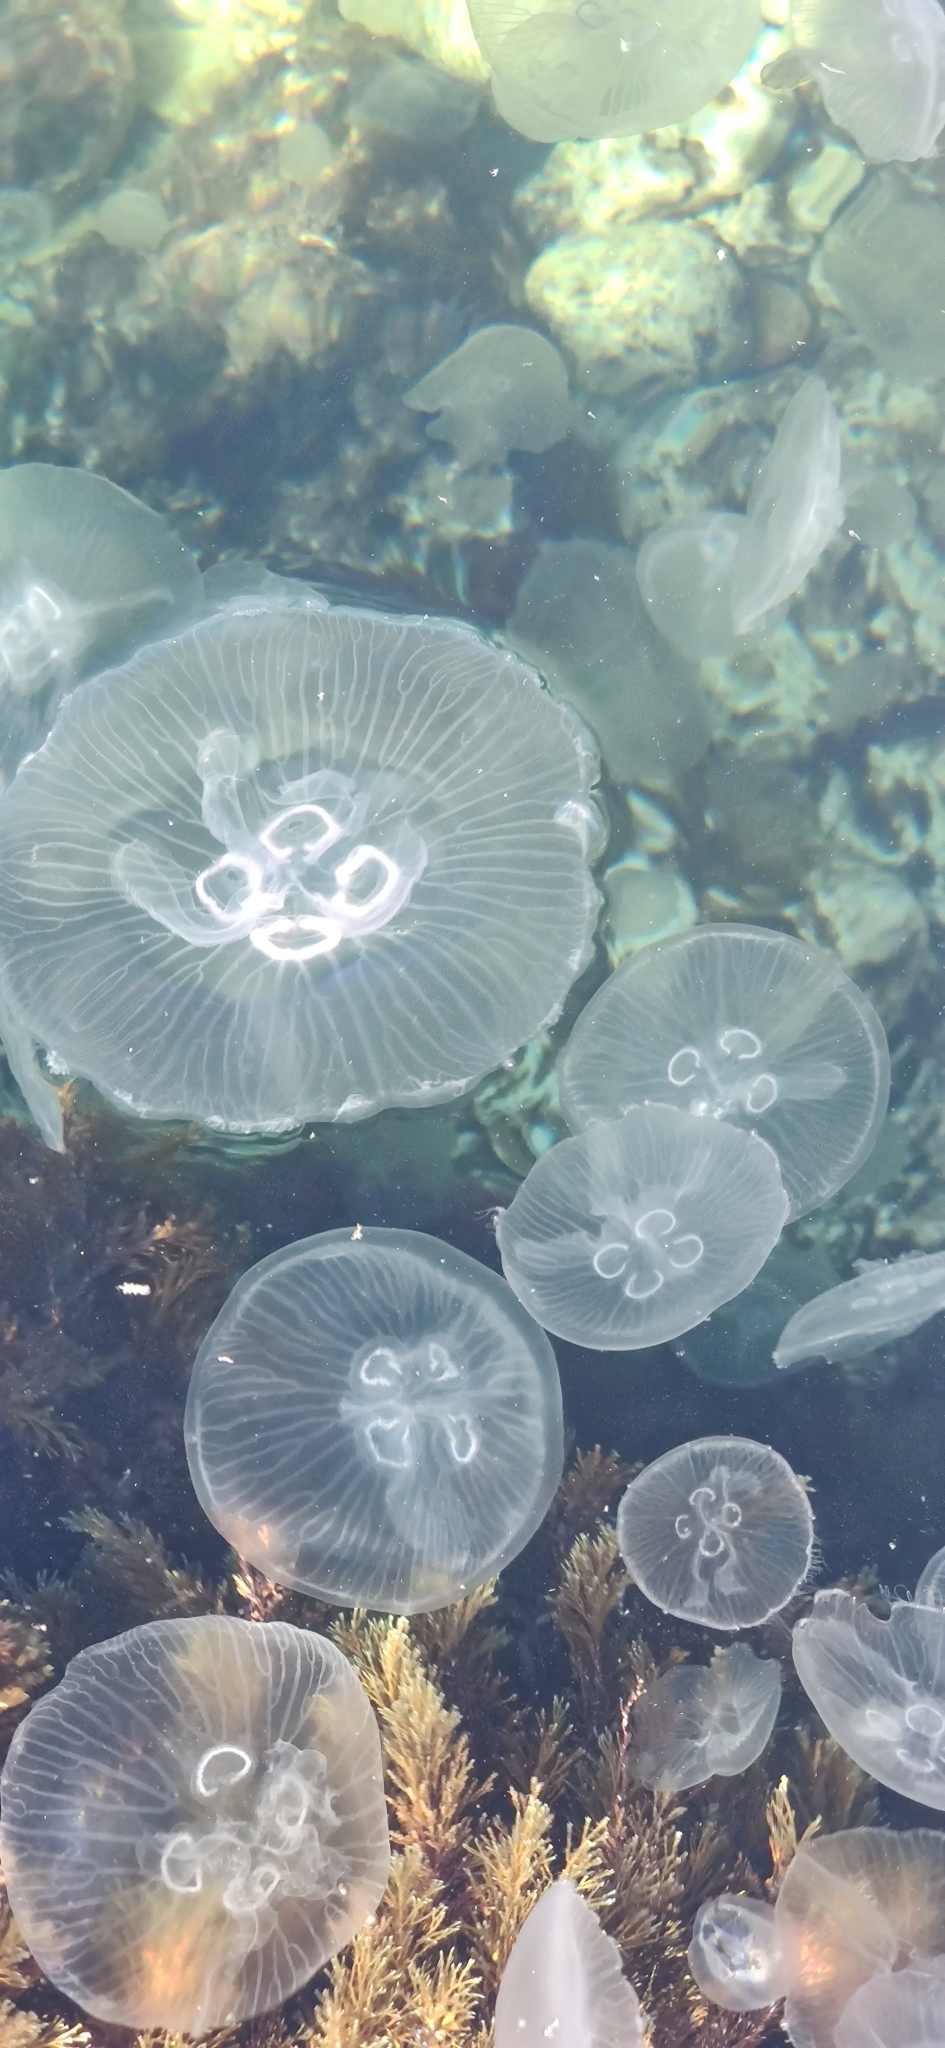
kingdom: Animalia
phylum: Cnidaria
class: Scyphozoa
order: Semaeostomeae
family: Ulmaridae
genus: Aurelia
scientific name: Aurelia aurita
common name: Moon jellyfish
